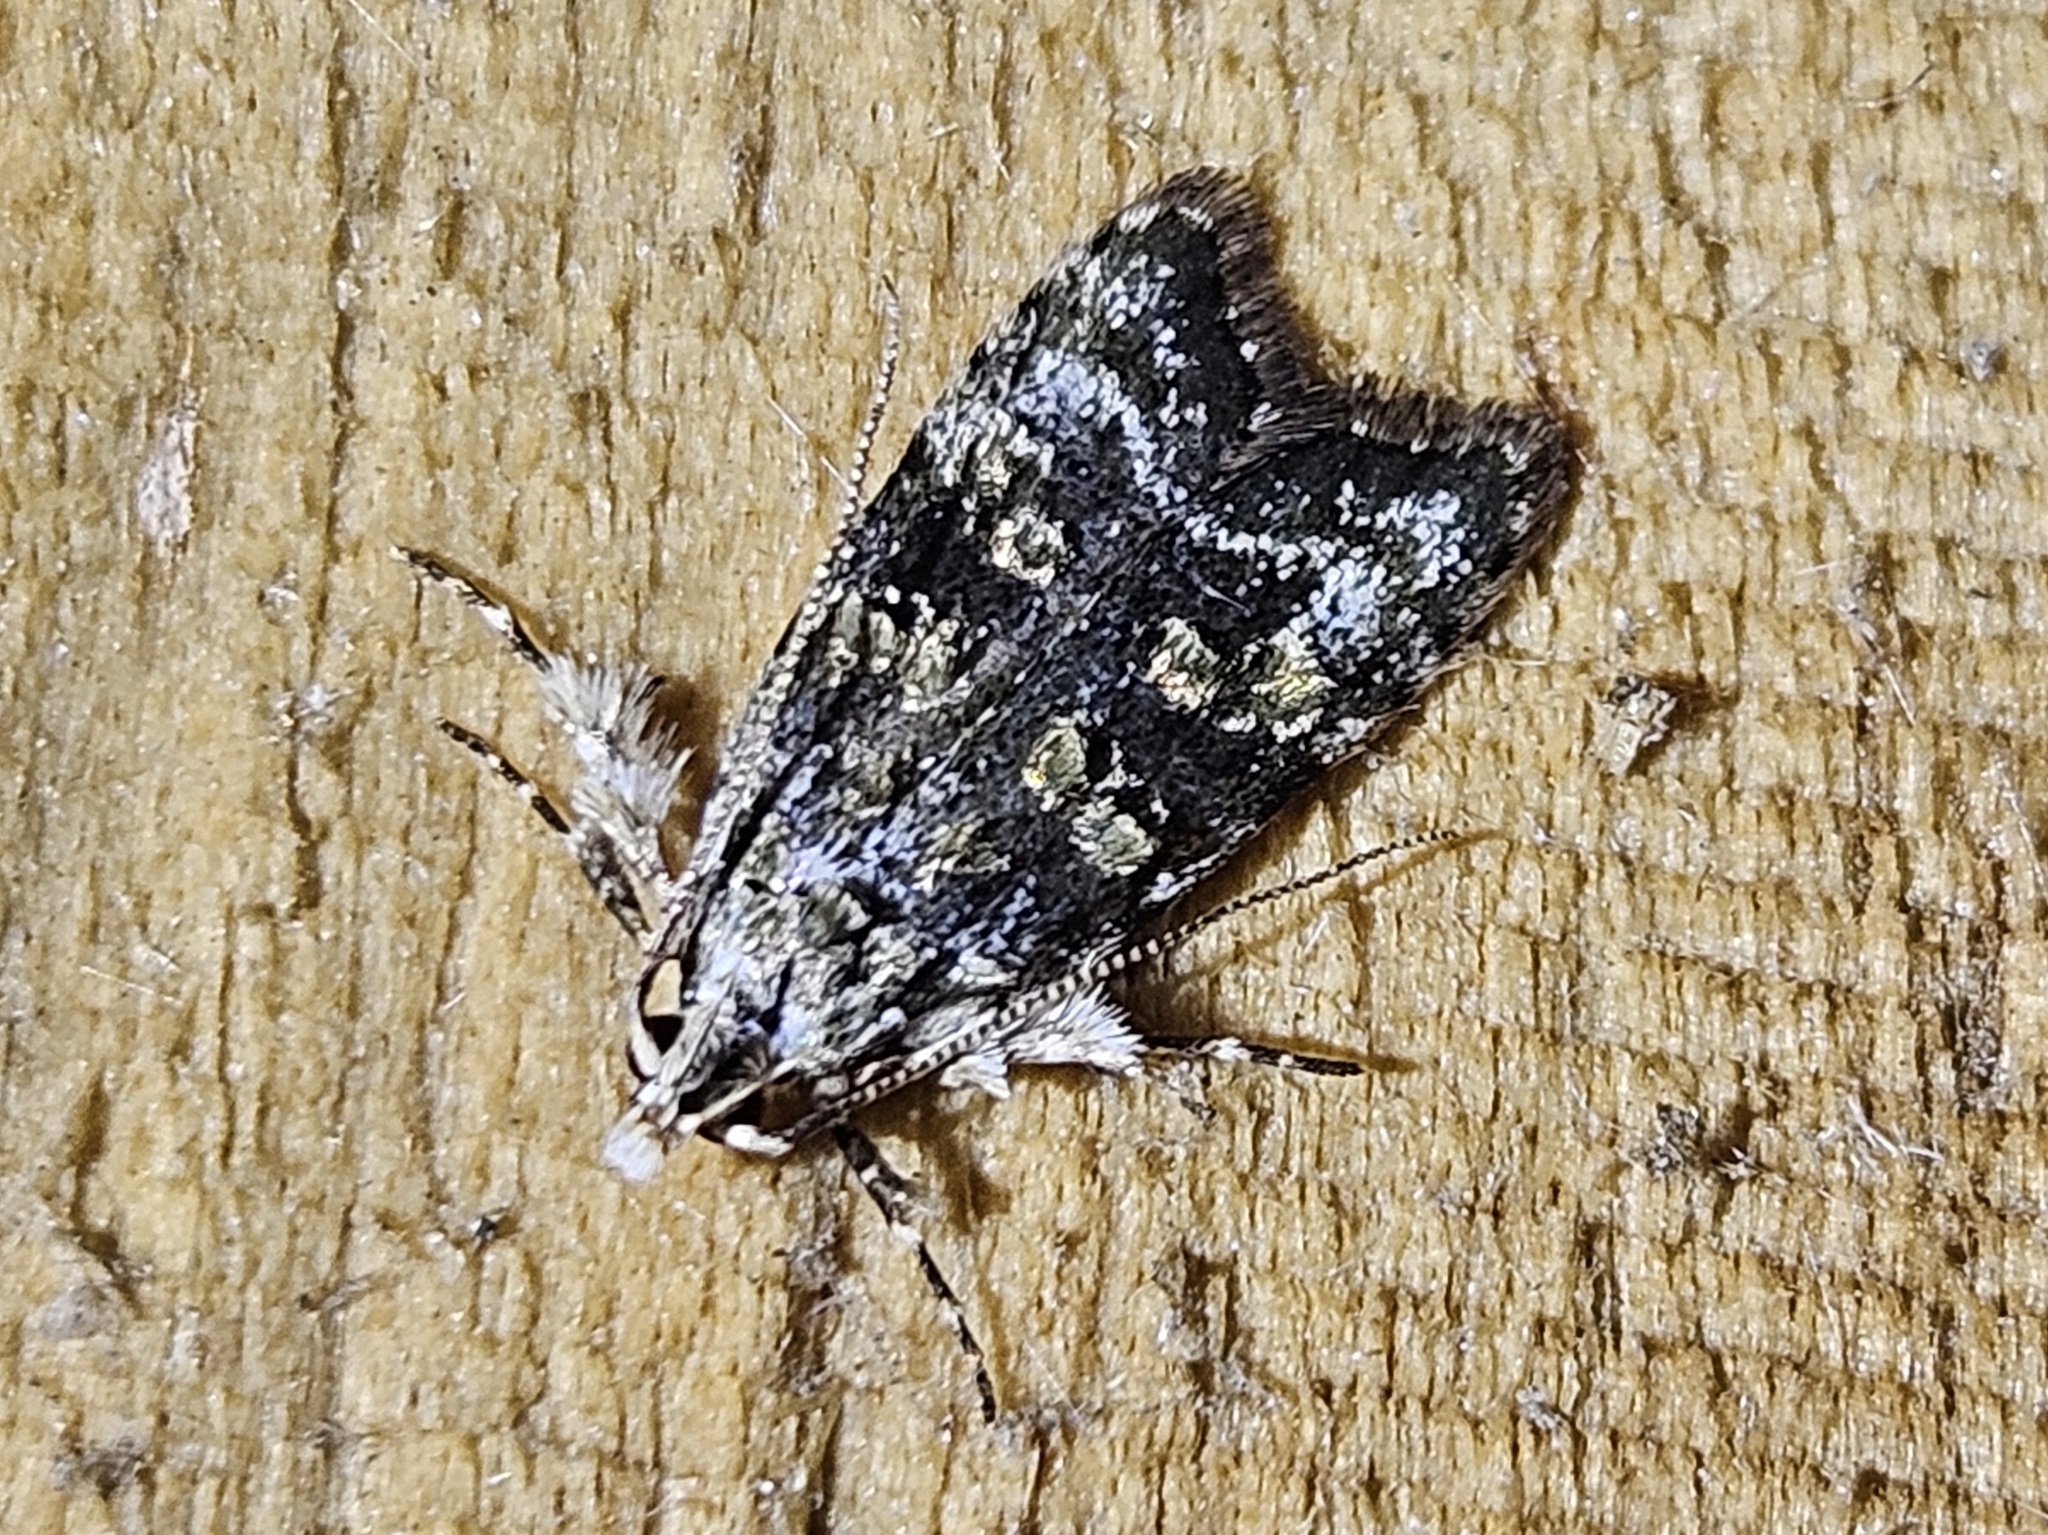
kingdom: Animalia
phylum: Arthropoda
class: Insecta
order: Lepidoptera
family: Oecophoridae
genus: Izatha
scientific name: Izatha prasophyta
